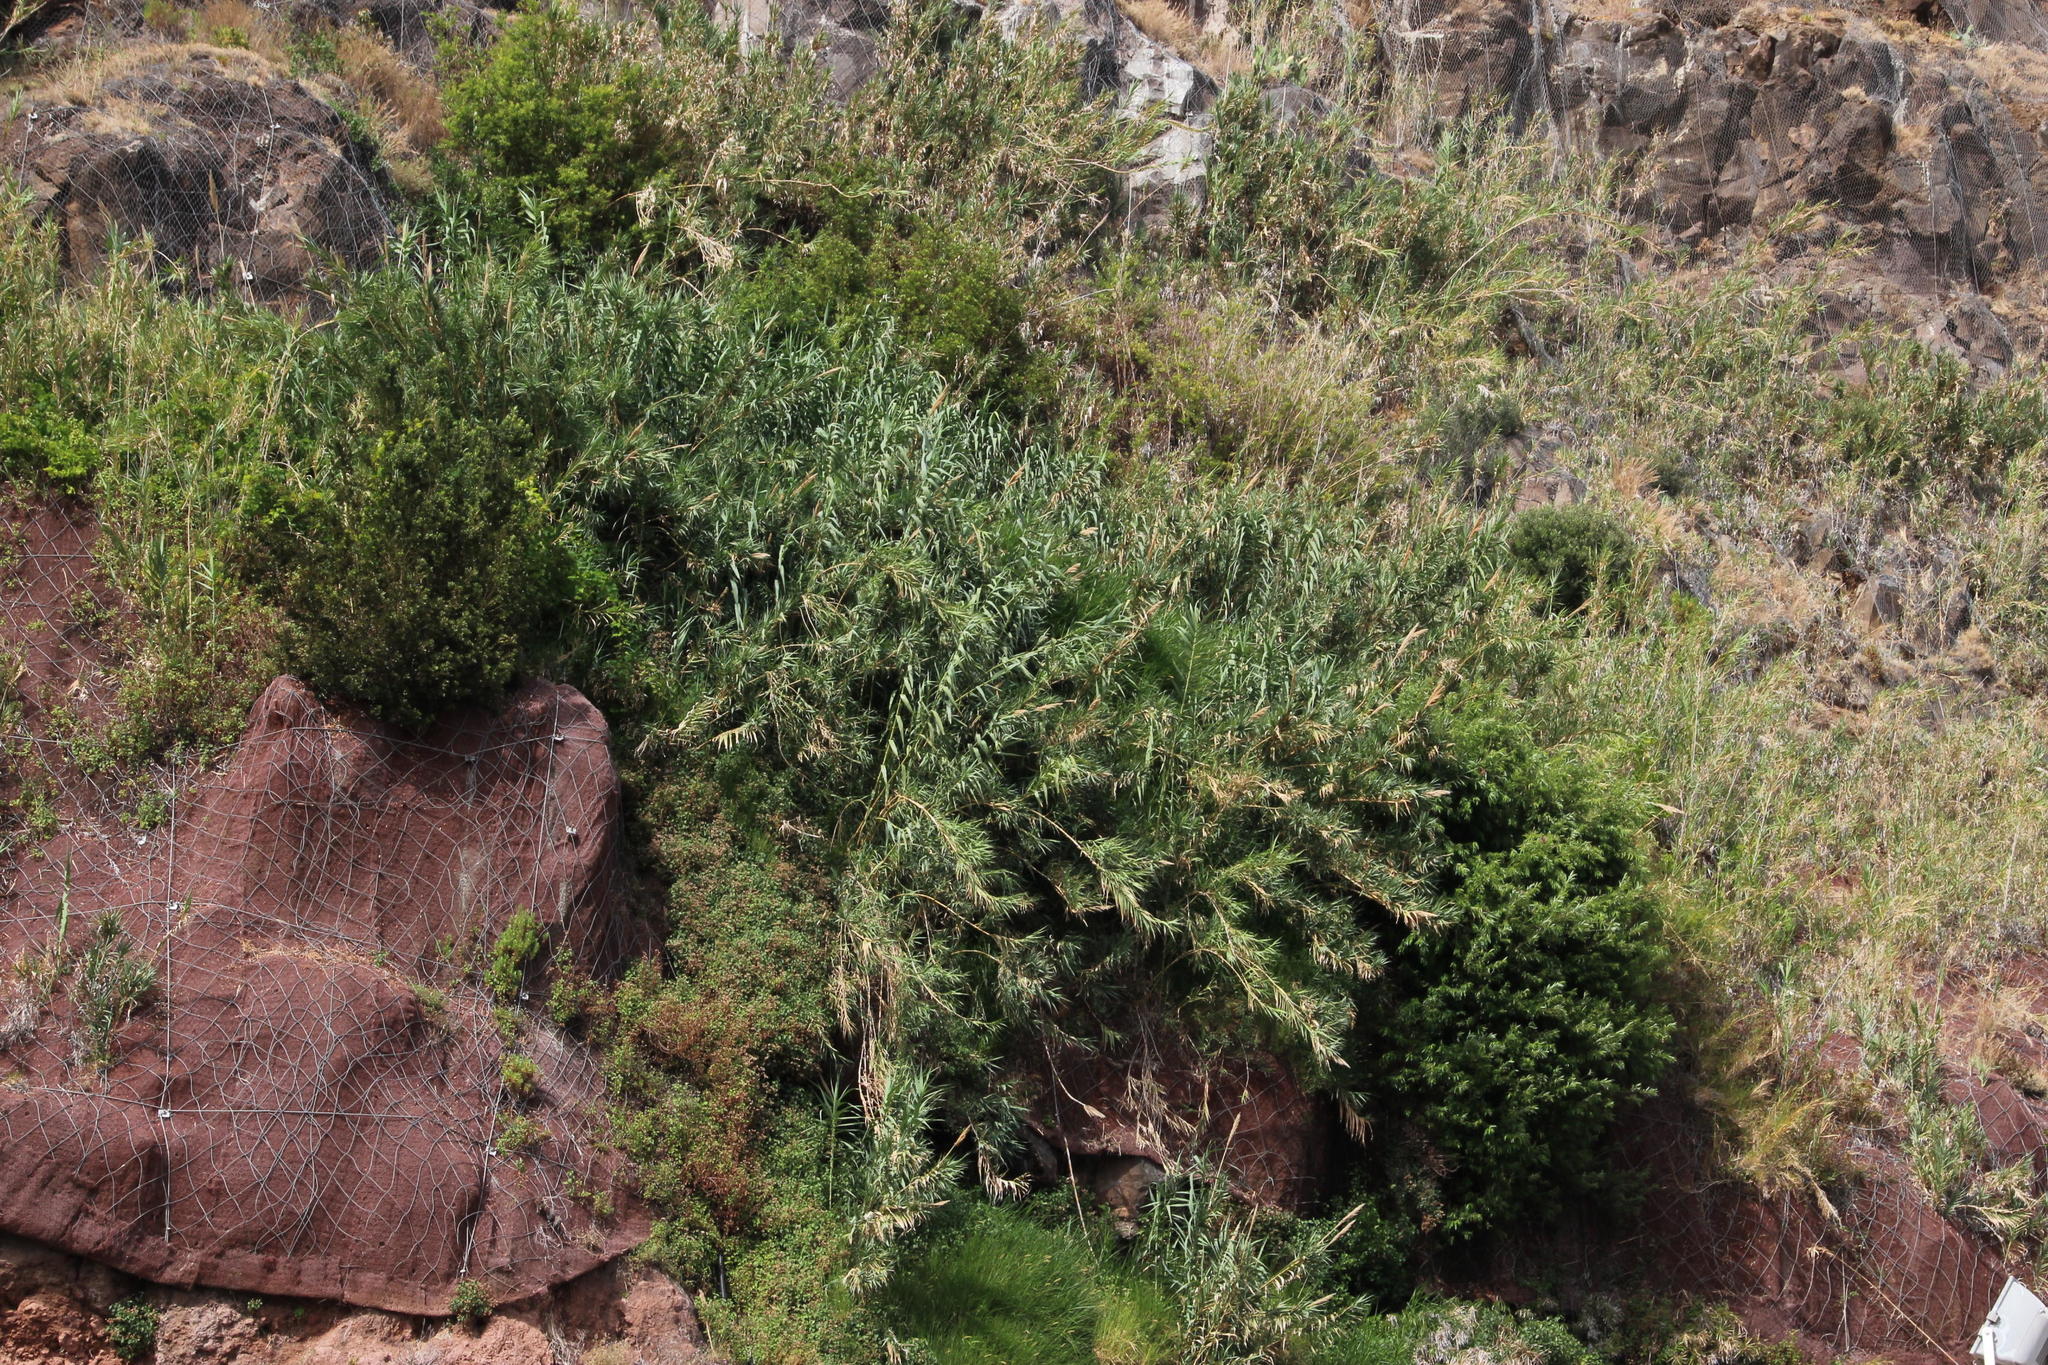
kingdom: Plantae
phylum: Tracheophyta
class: Liliopsida
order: Poales
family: Poaceae
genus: Arundo
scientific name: Arundo donax
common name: Giant reed
